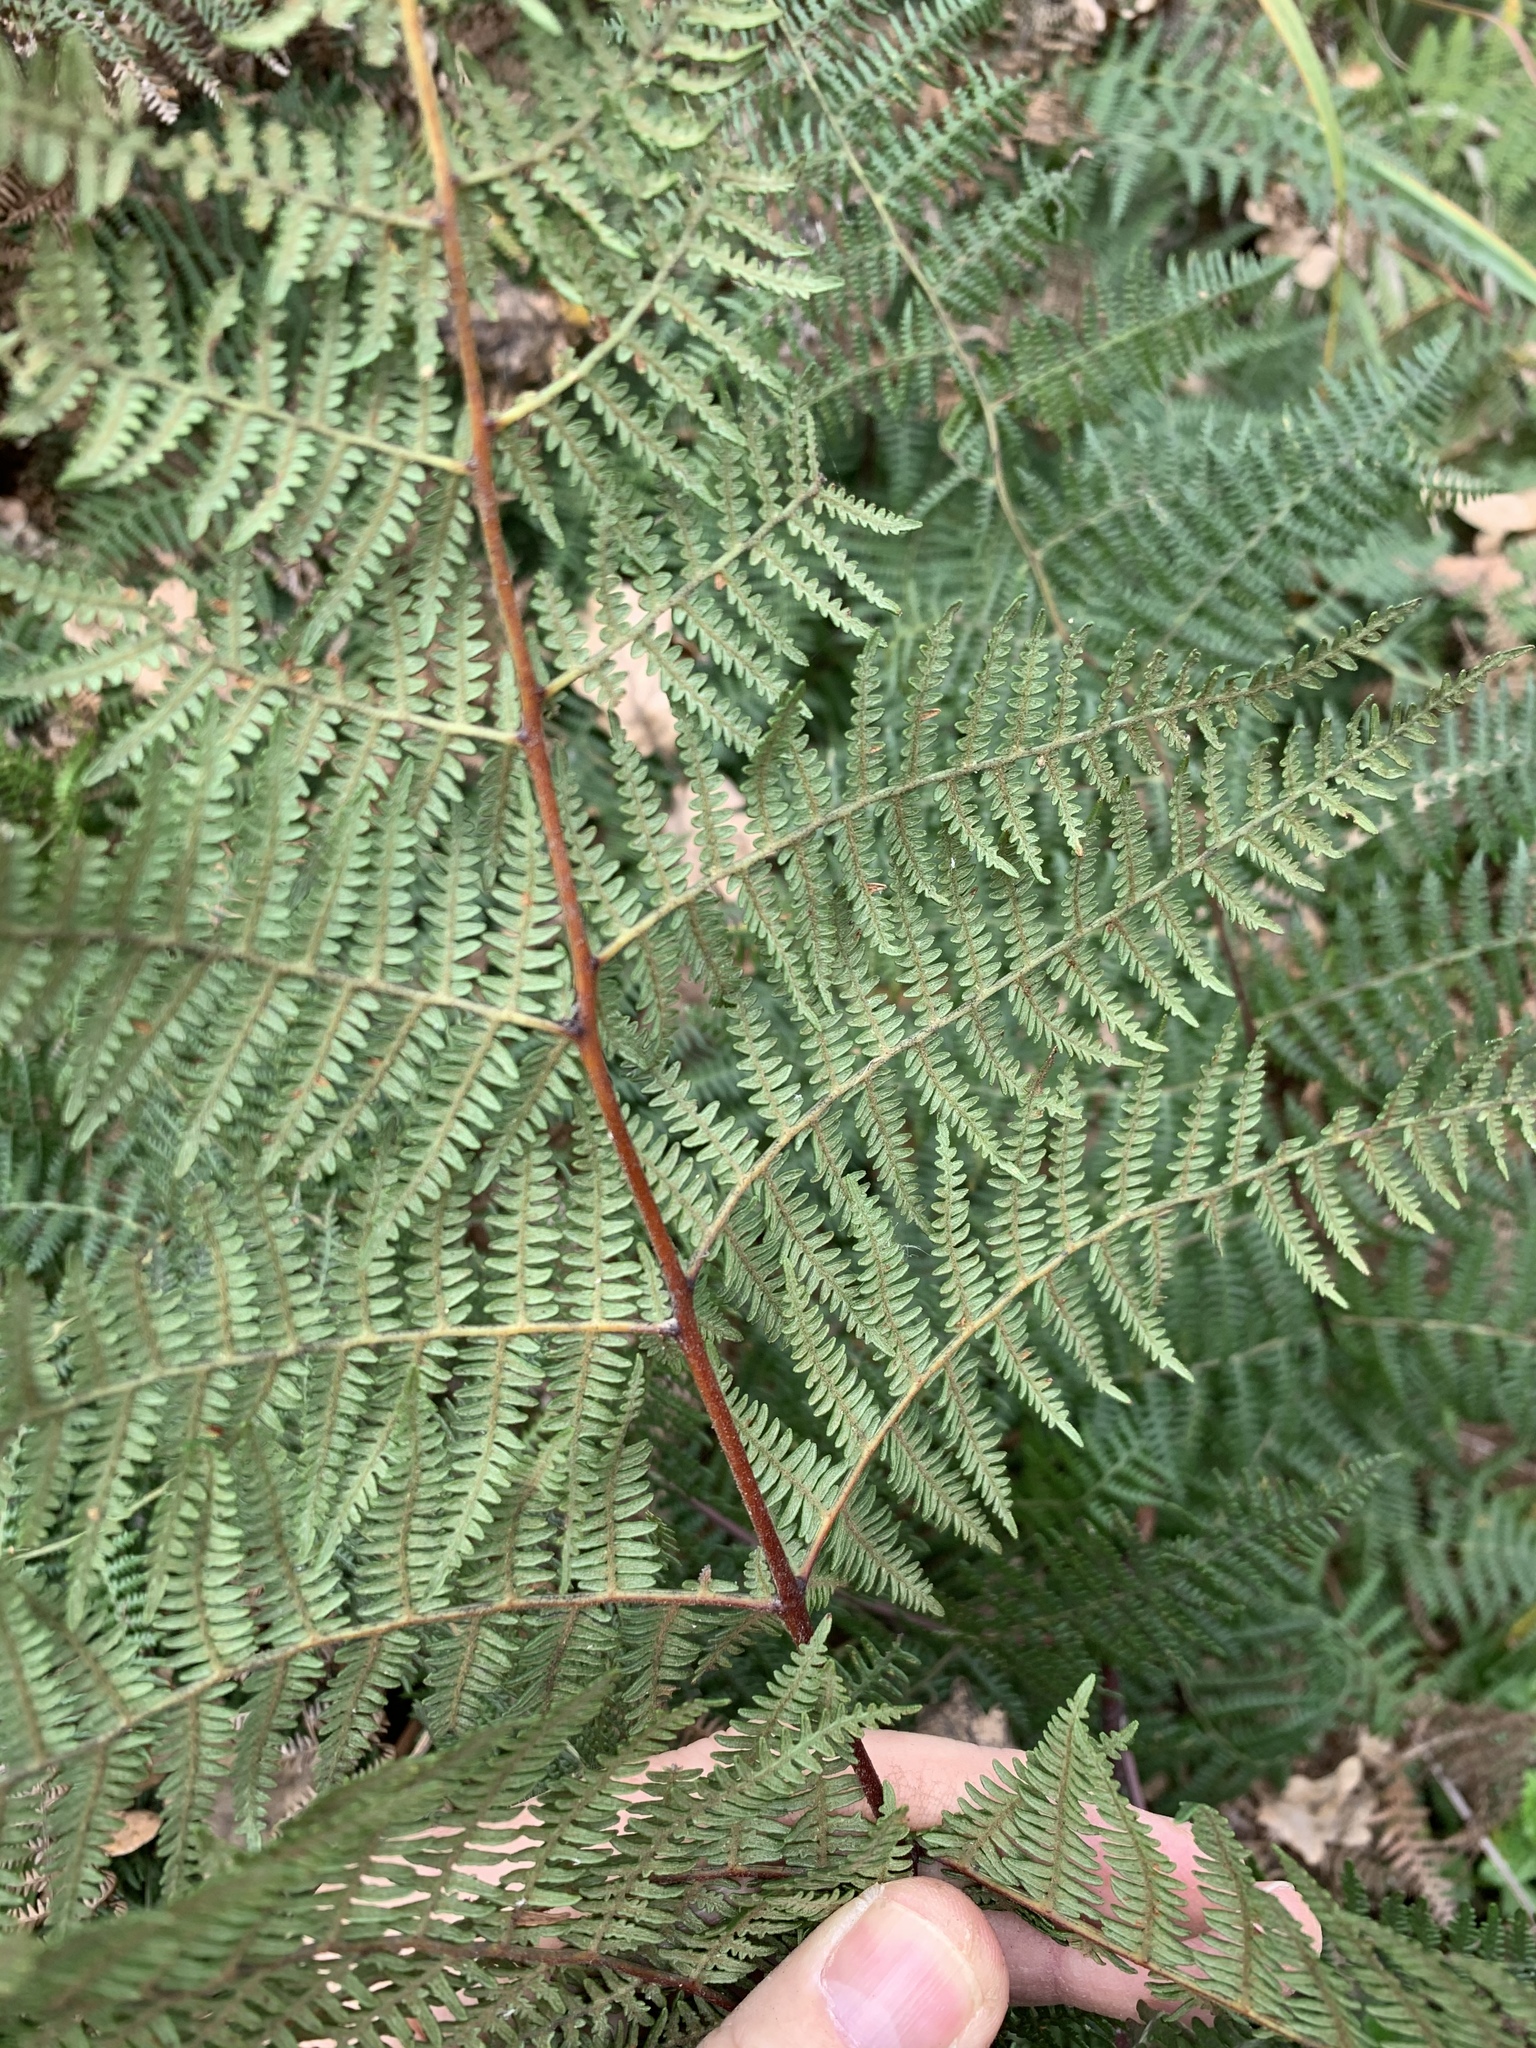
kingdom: Plantae
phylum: Tracheophyta
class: Polypodiopsida
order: Polypodiales
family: Dennstaedtiaceae
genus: Pteridium
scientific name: Pteridium aquilinum
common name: Bracken
